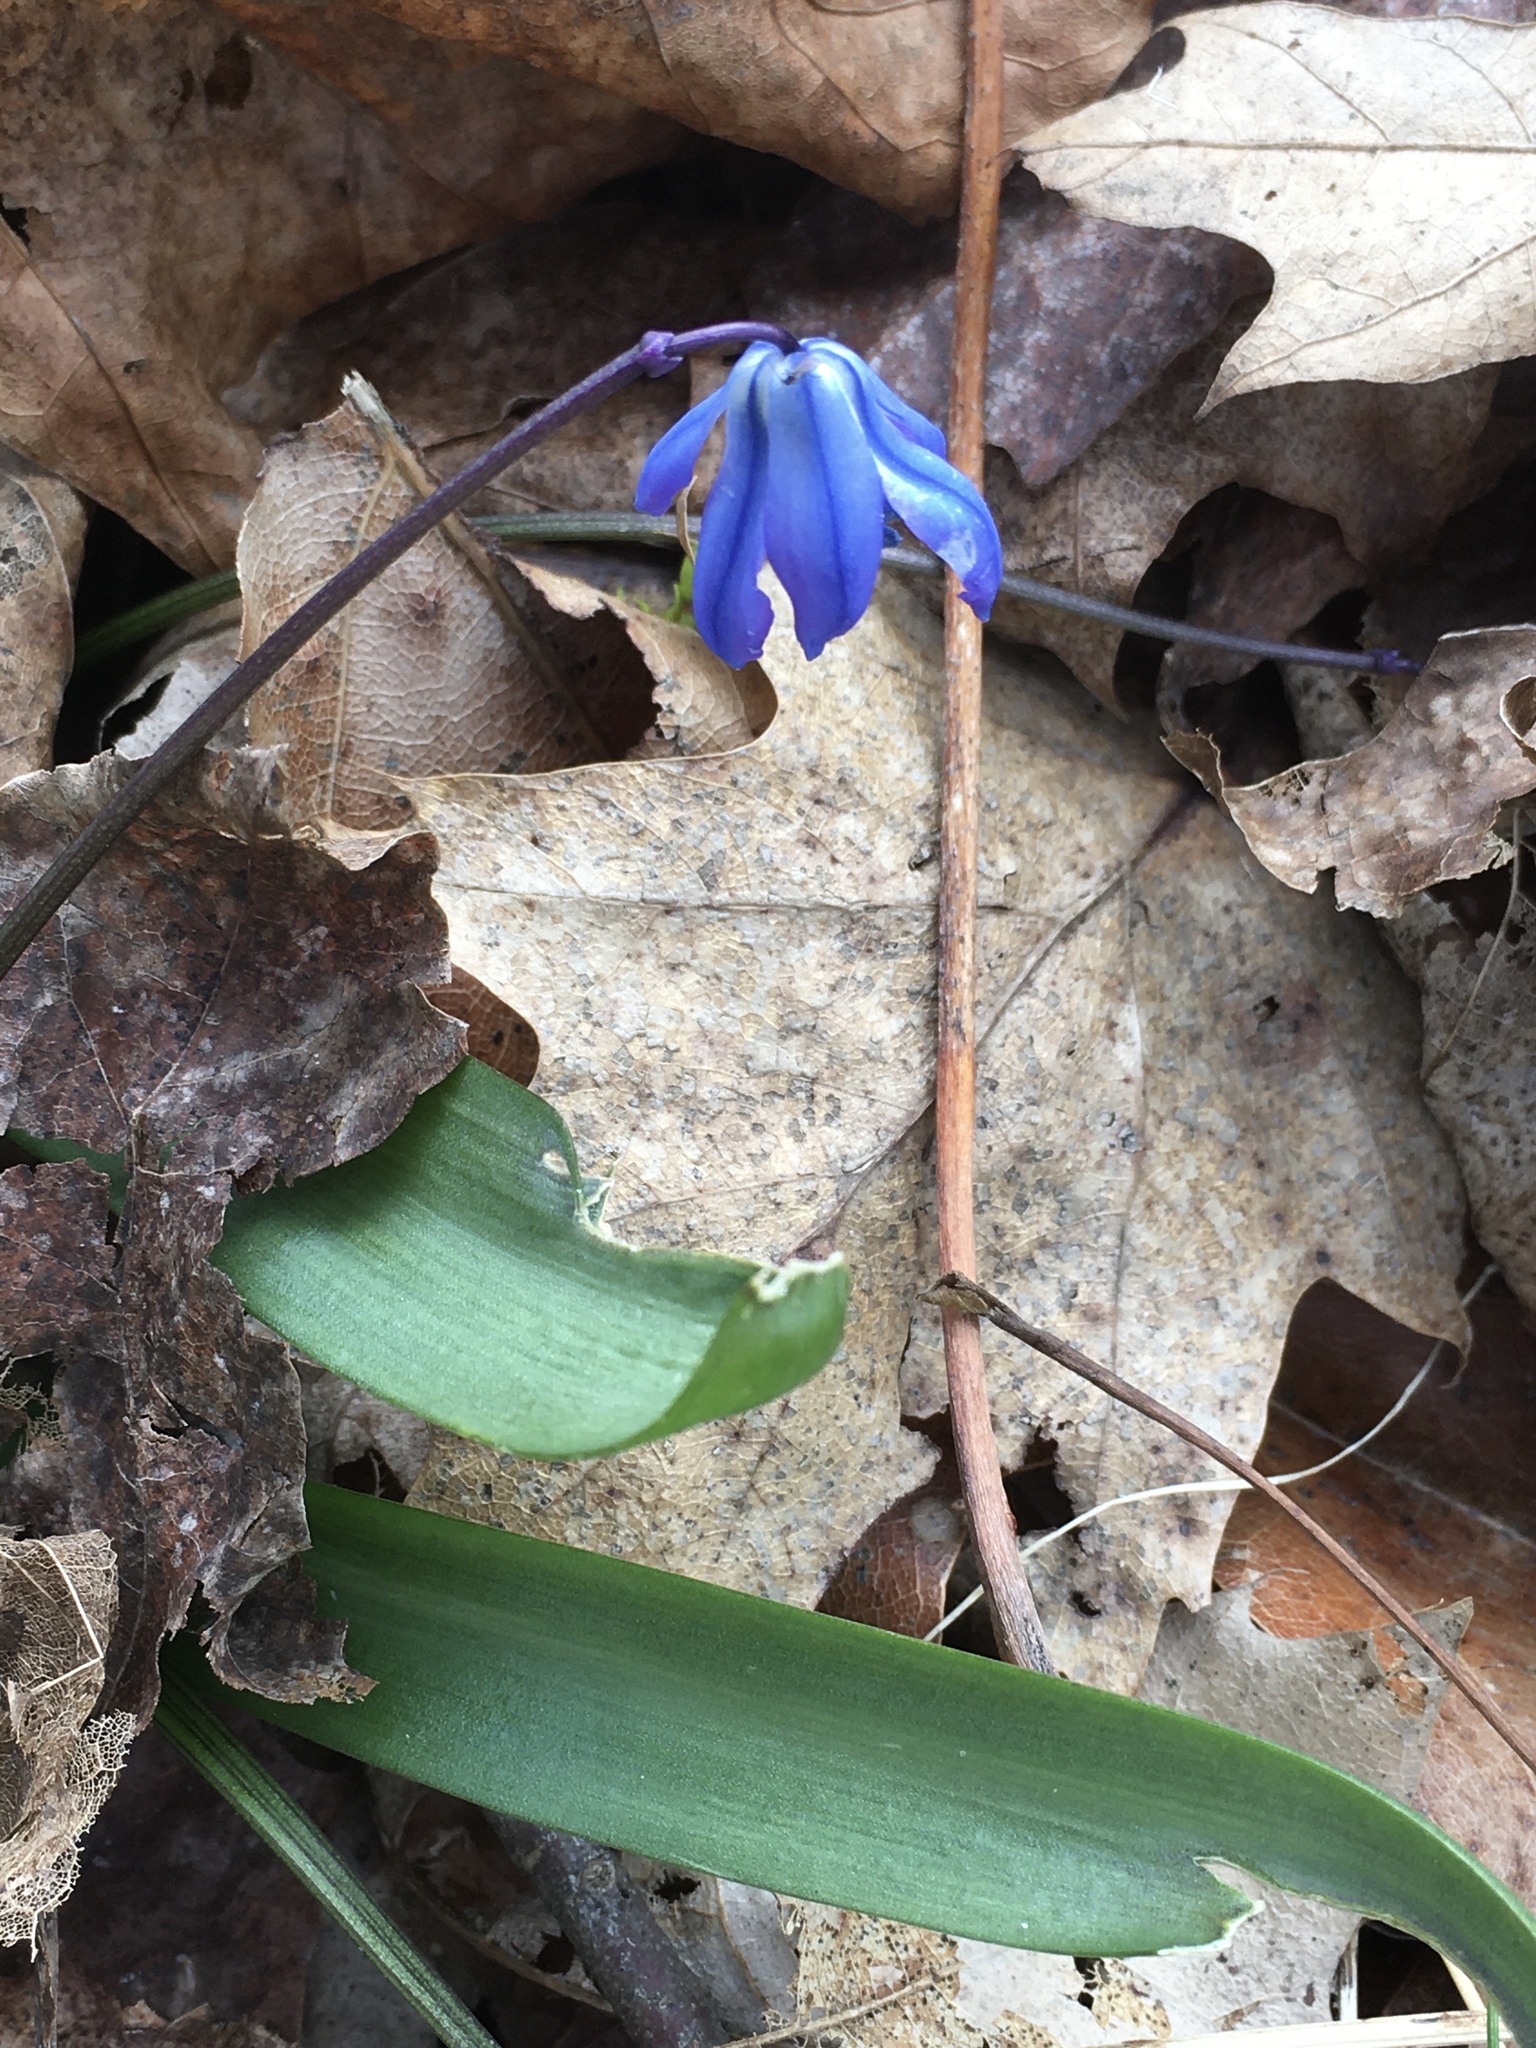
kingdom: Plantae
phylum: Tracheophyta
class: Liliopsida
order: Asparagales
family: Asparagaceae
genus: Scilla
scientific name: Scilla siberica
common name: Siberian squill
